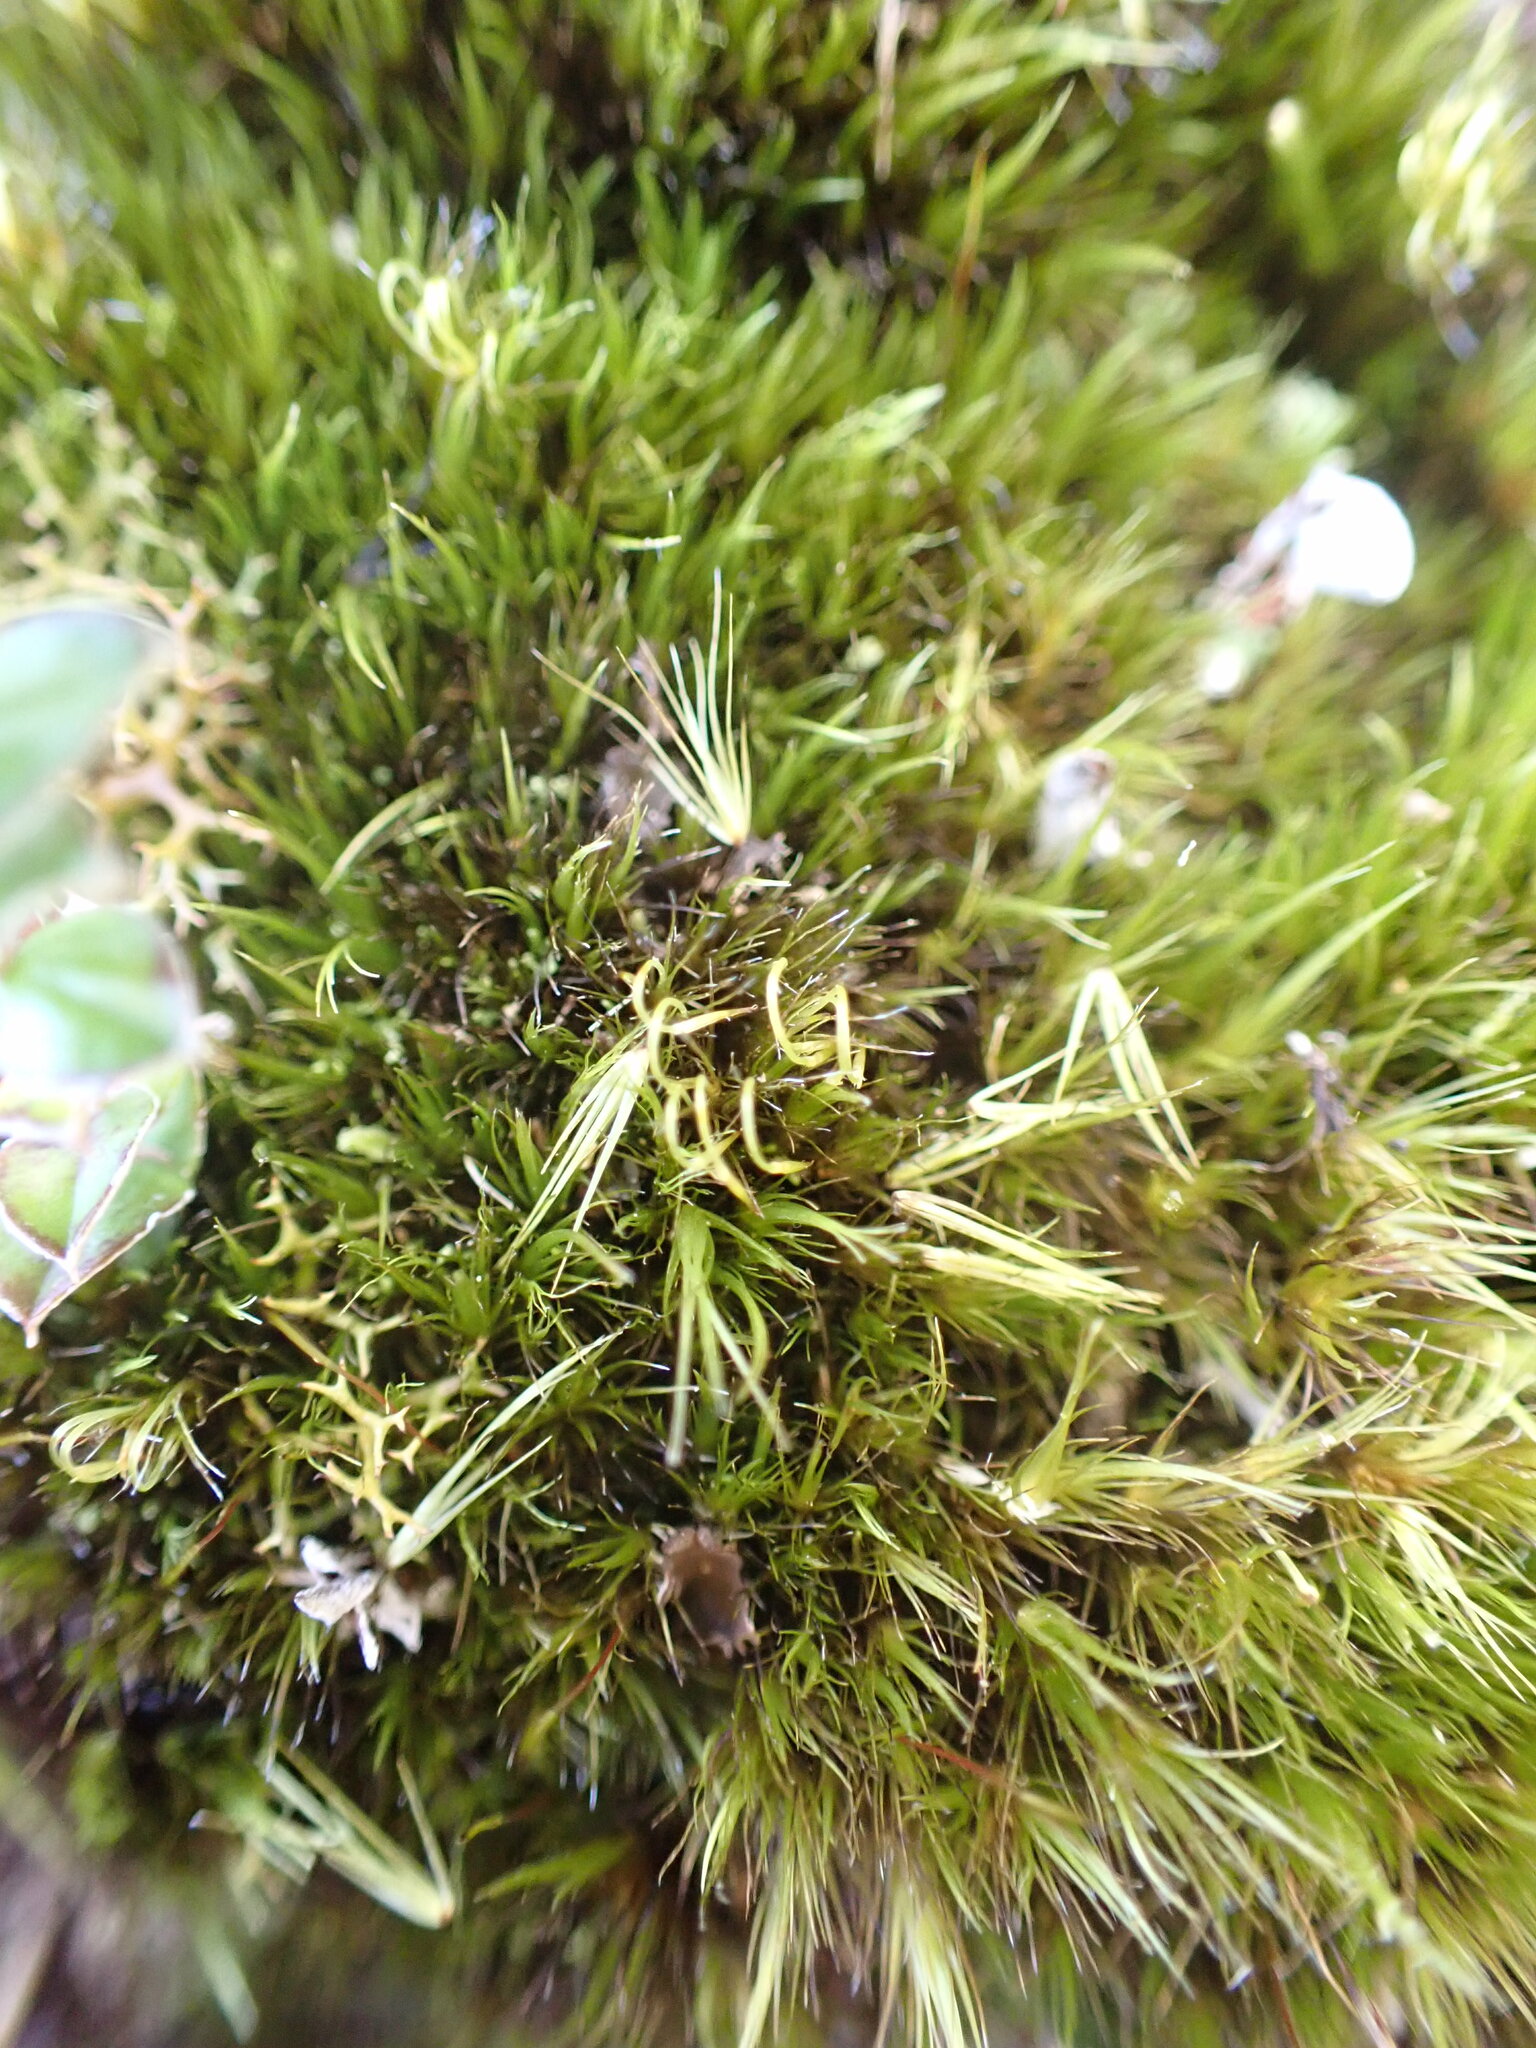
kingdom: Plantae
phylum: Bryophyta
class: Bryopsida
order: Dicranales
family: Leucobryaceae
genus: Campylopus
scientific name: Campylopus clavatus
